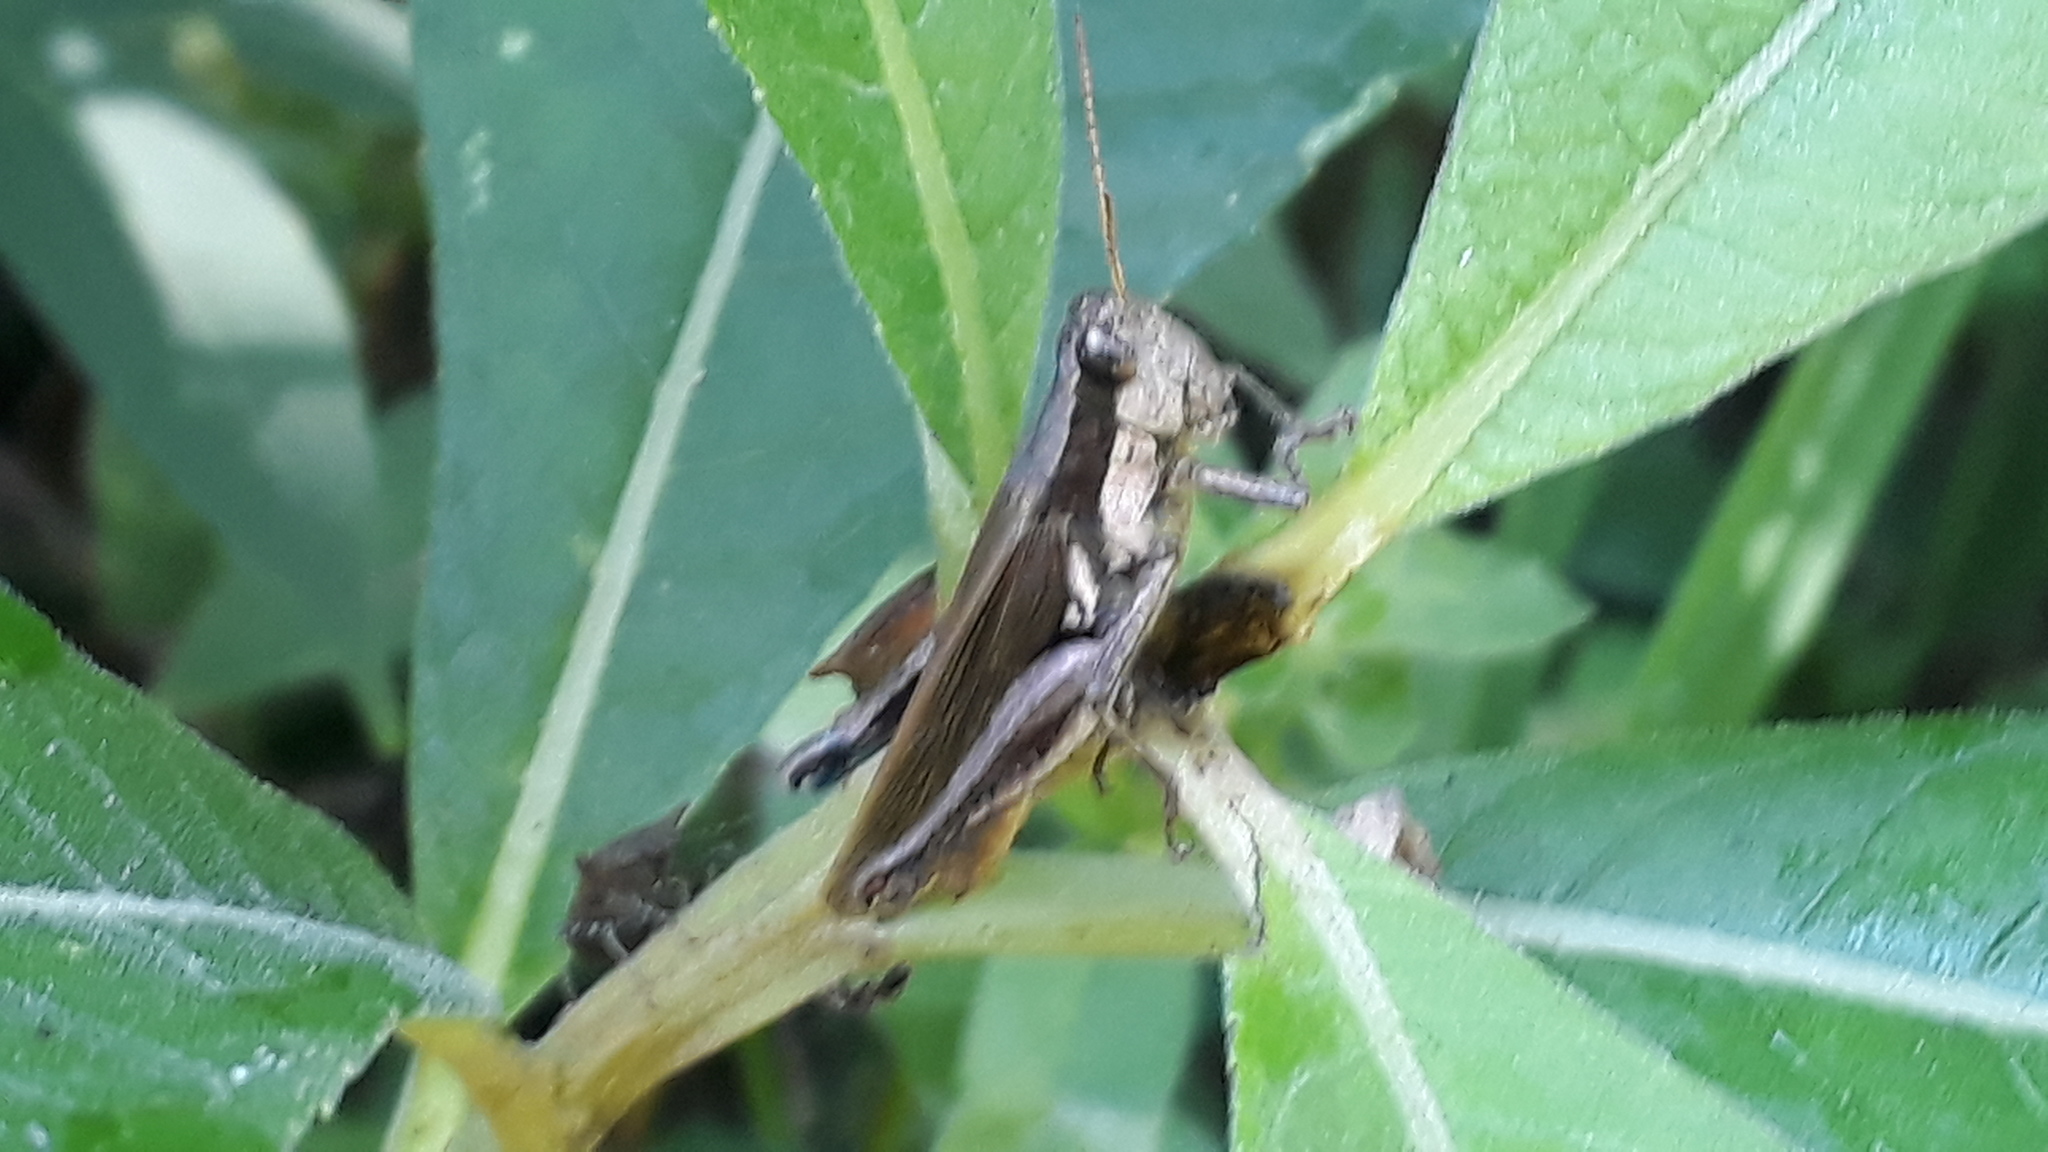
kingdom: Animalia
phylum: Arthropoda
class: Insecta
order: Orthoptera
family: Acrididae
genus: Ronderosia
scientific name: Ronderosia bergii
